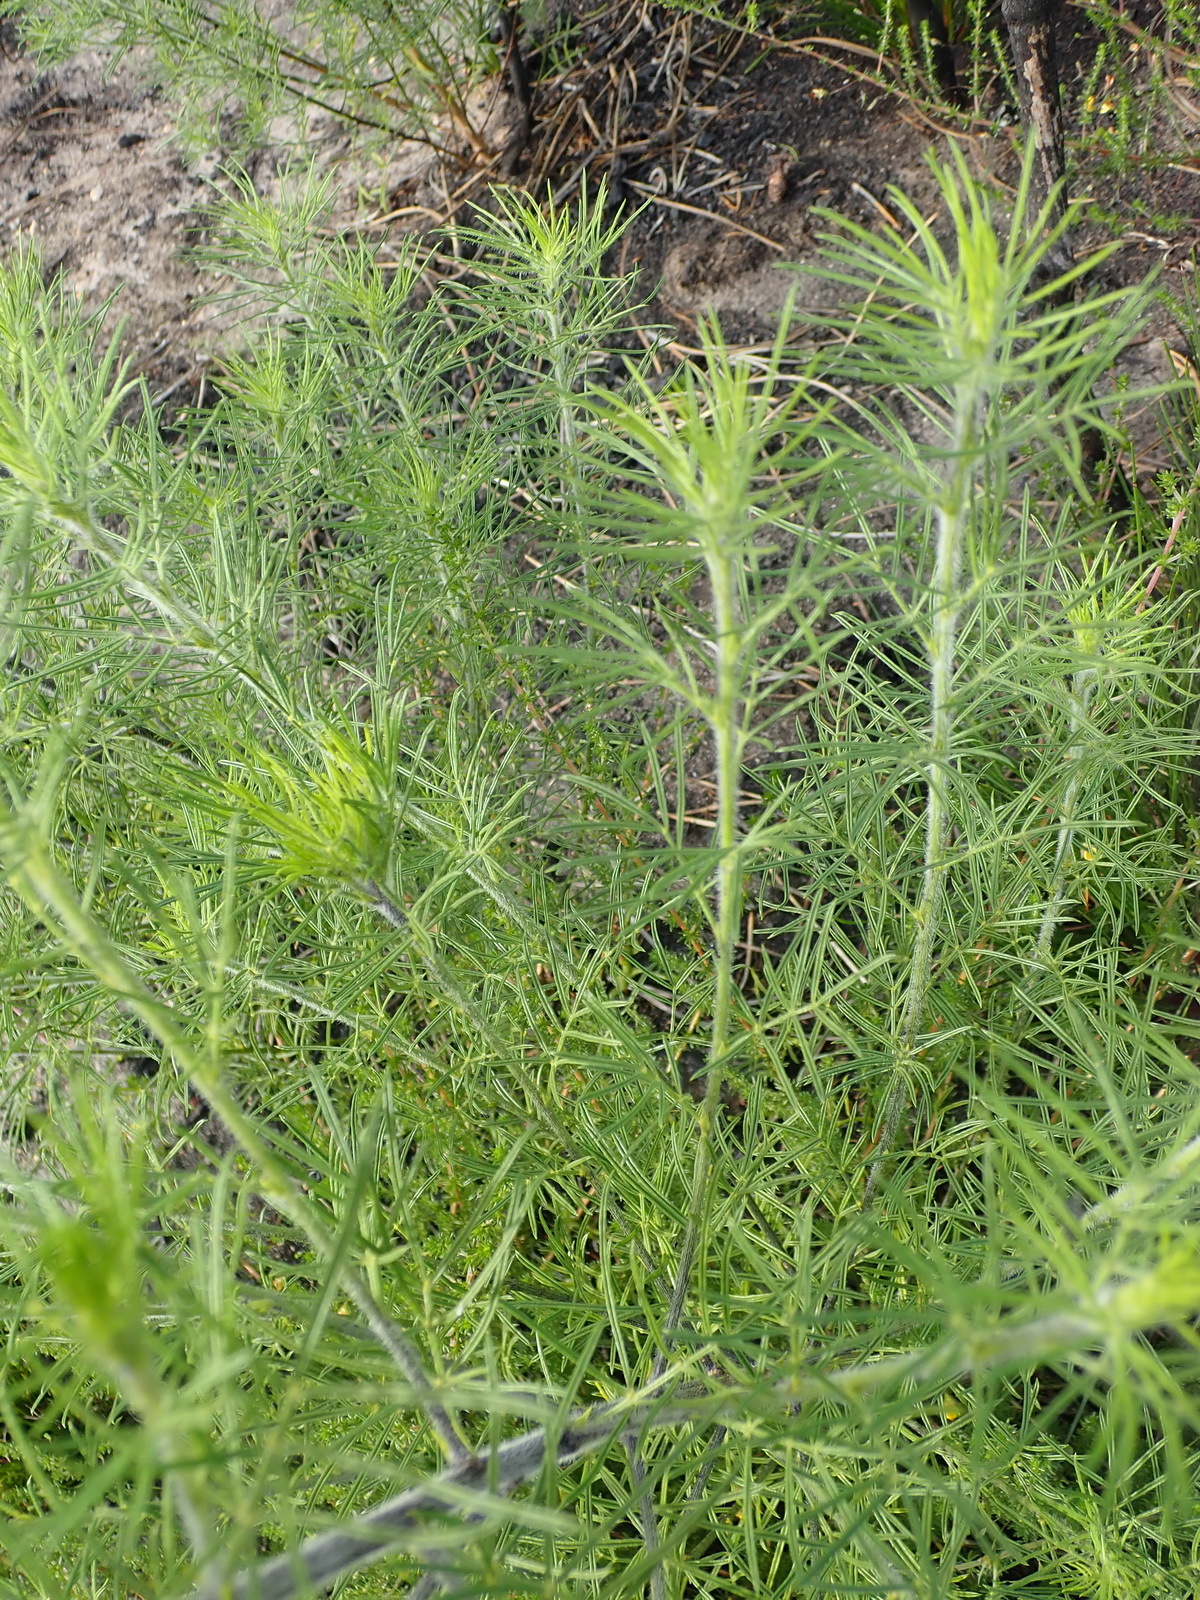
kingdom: Plantae
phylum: Tracheophyta
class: Magnoliopsida
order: Fabales
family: Fabaceae
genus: Psoralea
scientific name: Psoralea floccosa
